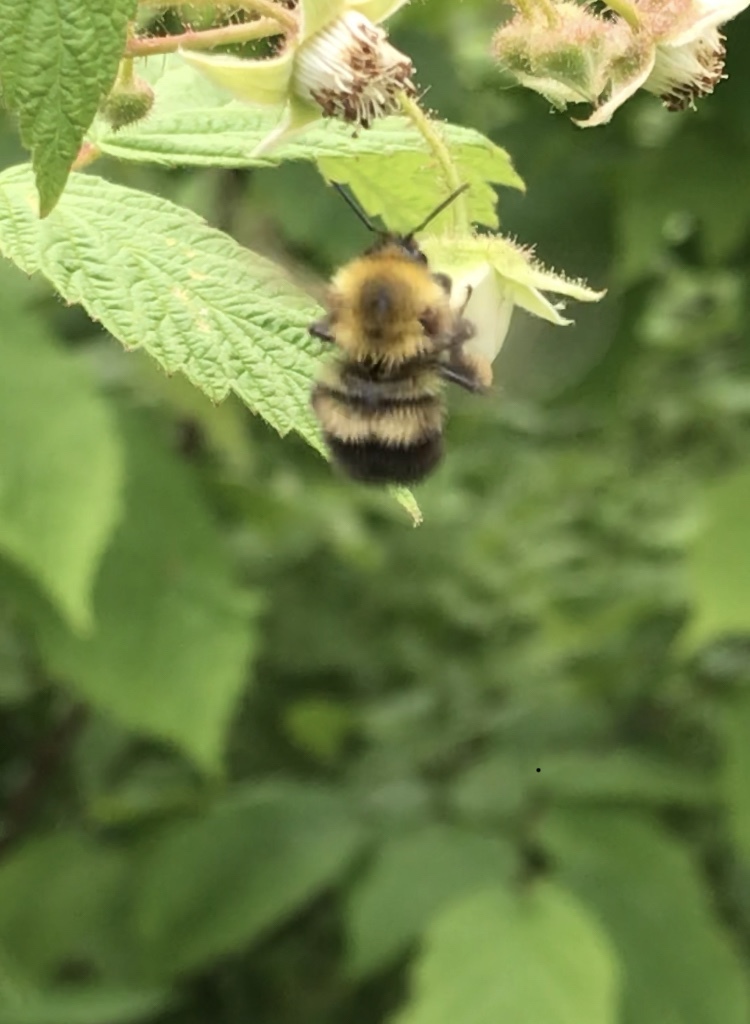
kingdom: Animalia
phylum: Arthropoda
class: Insecta
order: Hymenoptera
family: Apidae
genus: Bombus
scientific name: Bombus perplexus
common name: Confusing bumble bee
